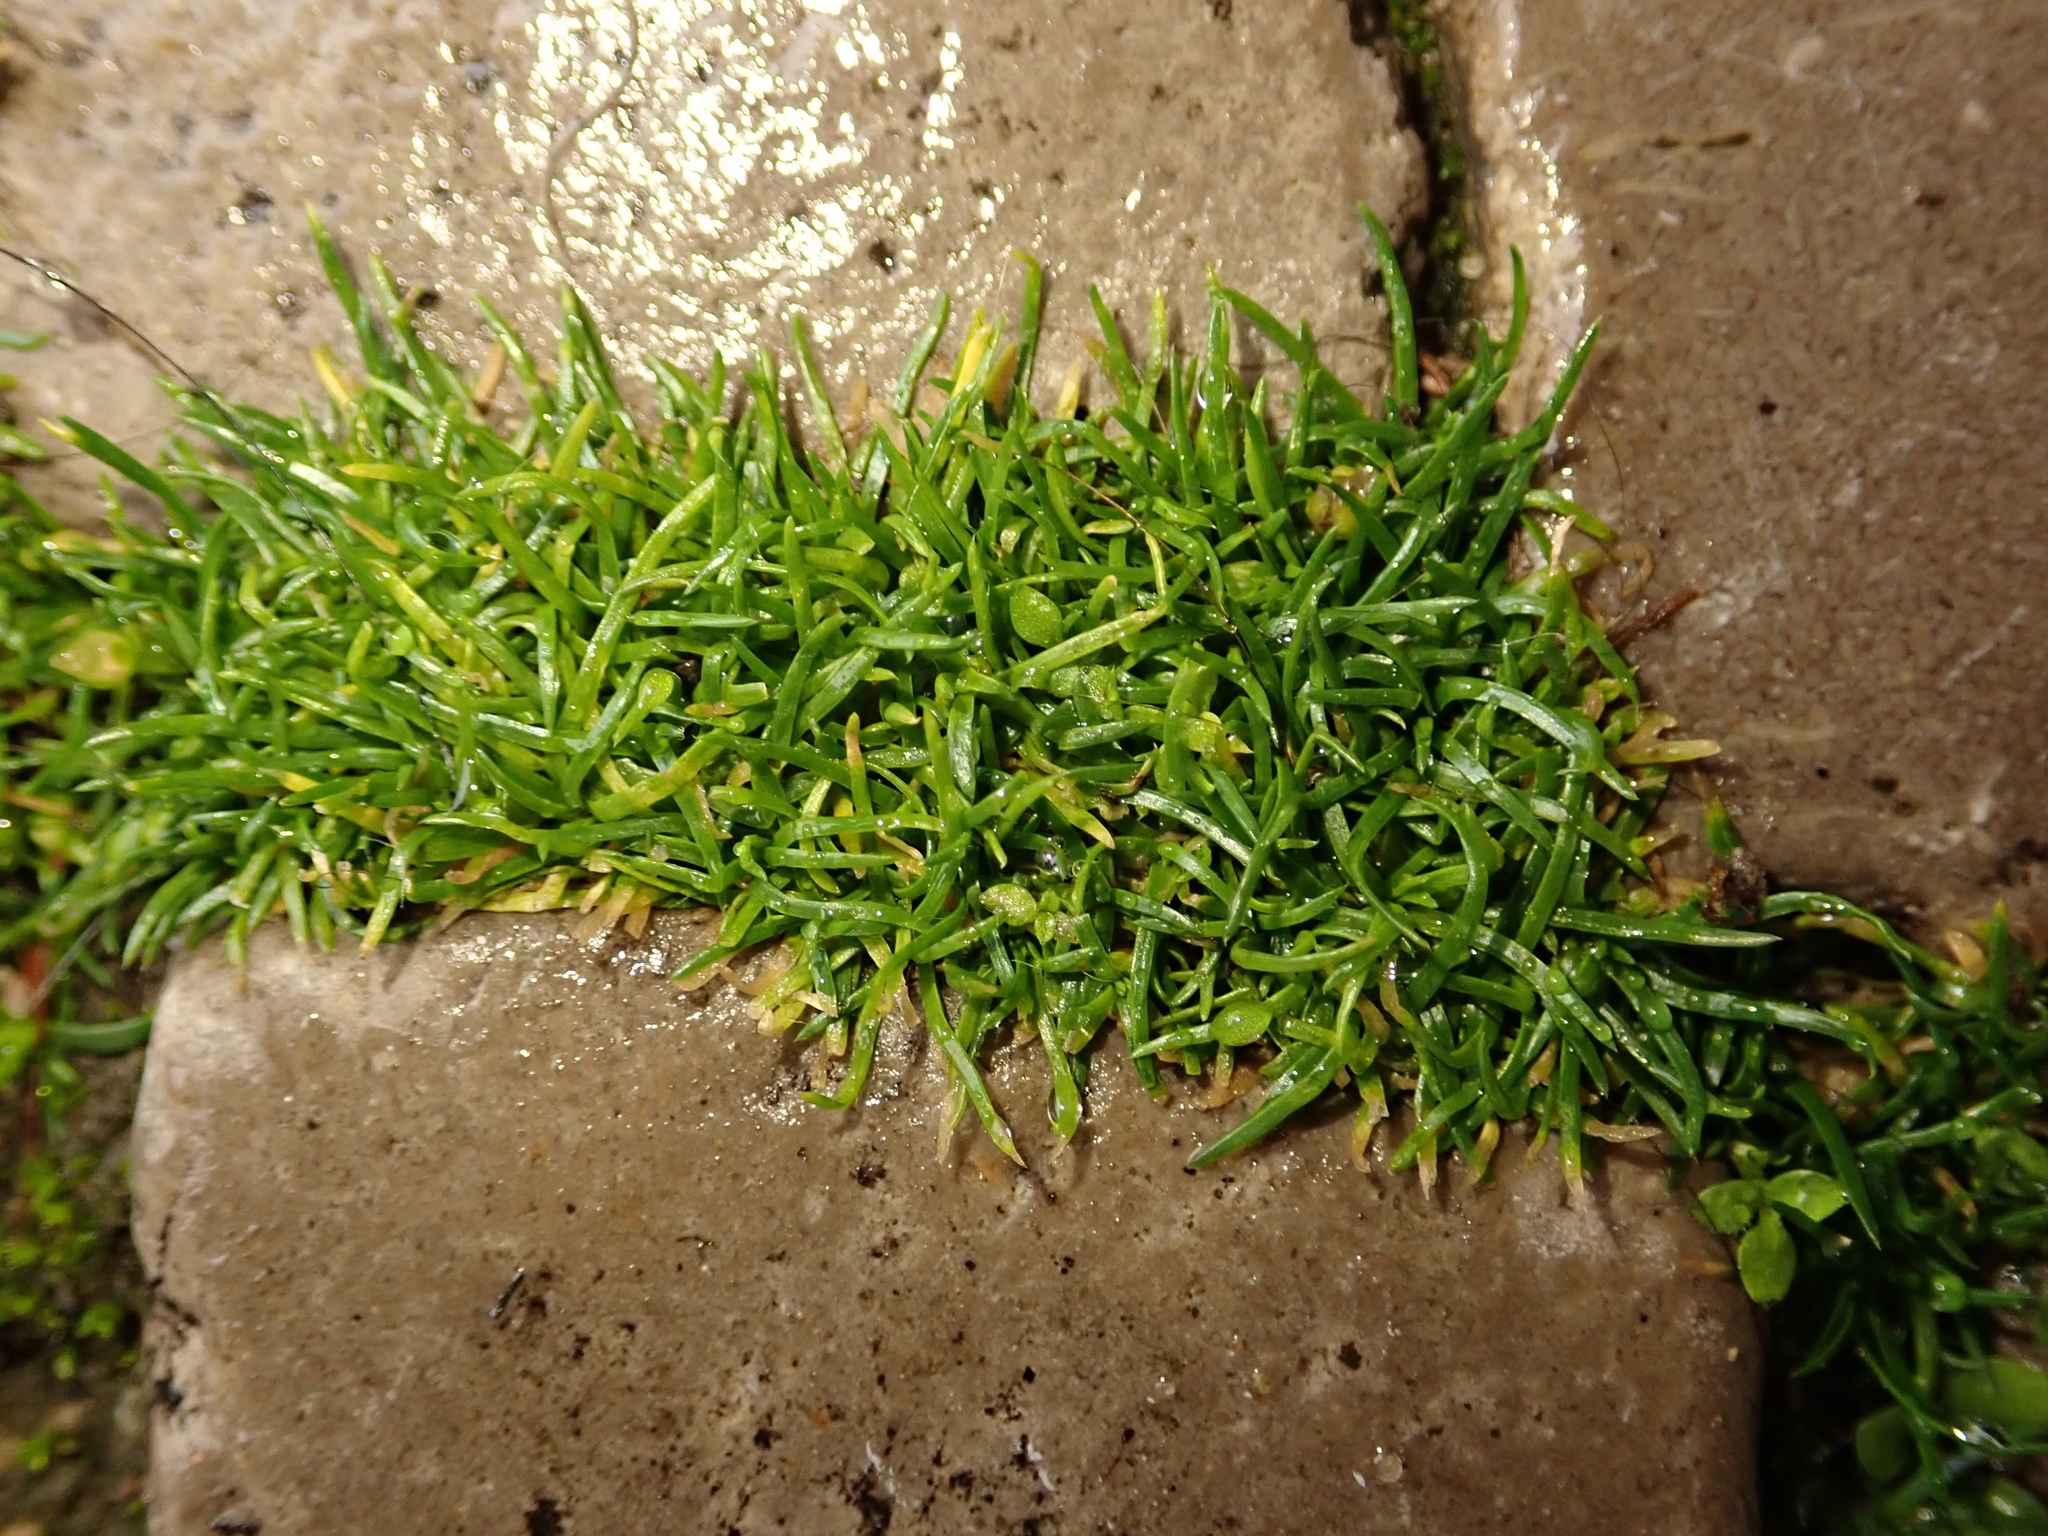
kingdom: Plantae
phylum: Tracheophyta
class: Magnoliopsida
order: Caryophyllales
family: Caryophyllaceae
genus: Sagina
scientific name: Sagina procumbens
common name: Procumbent pearlwort
